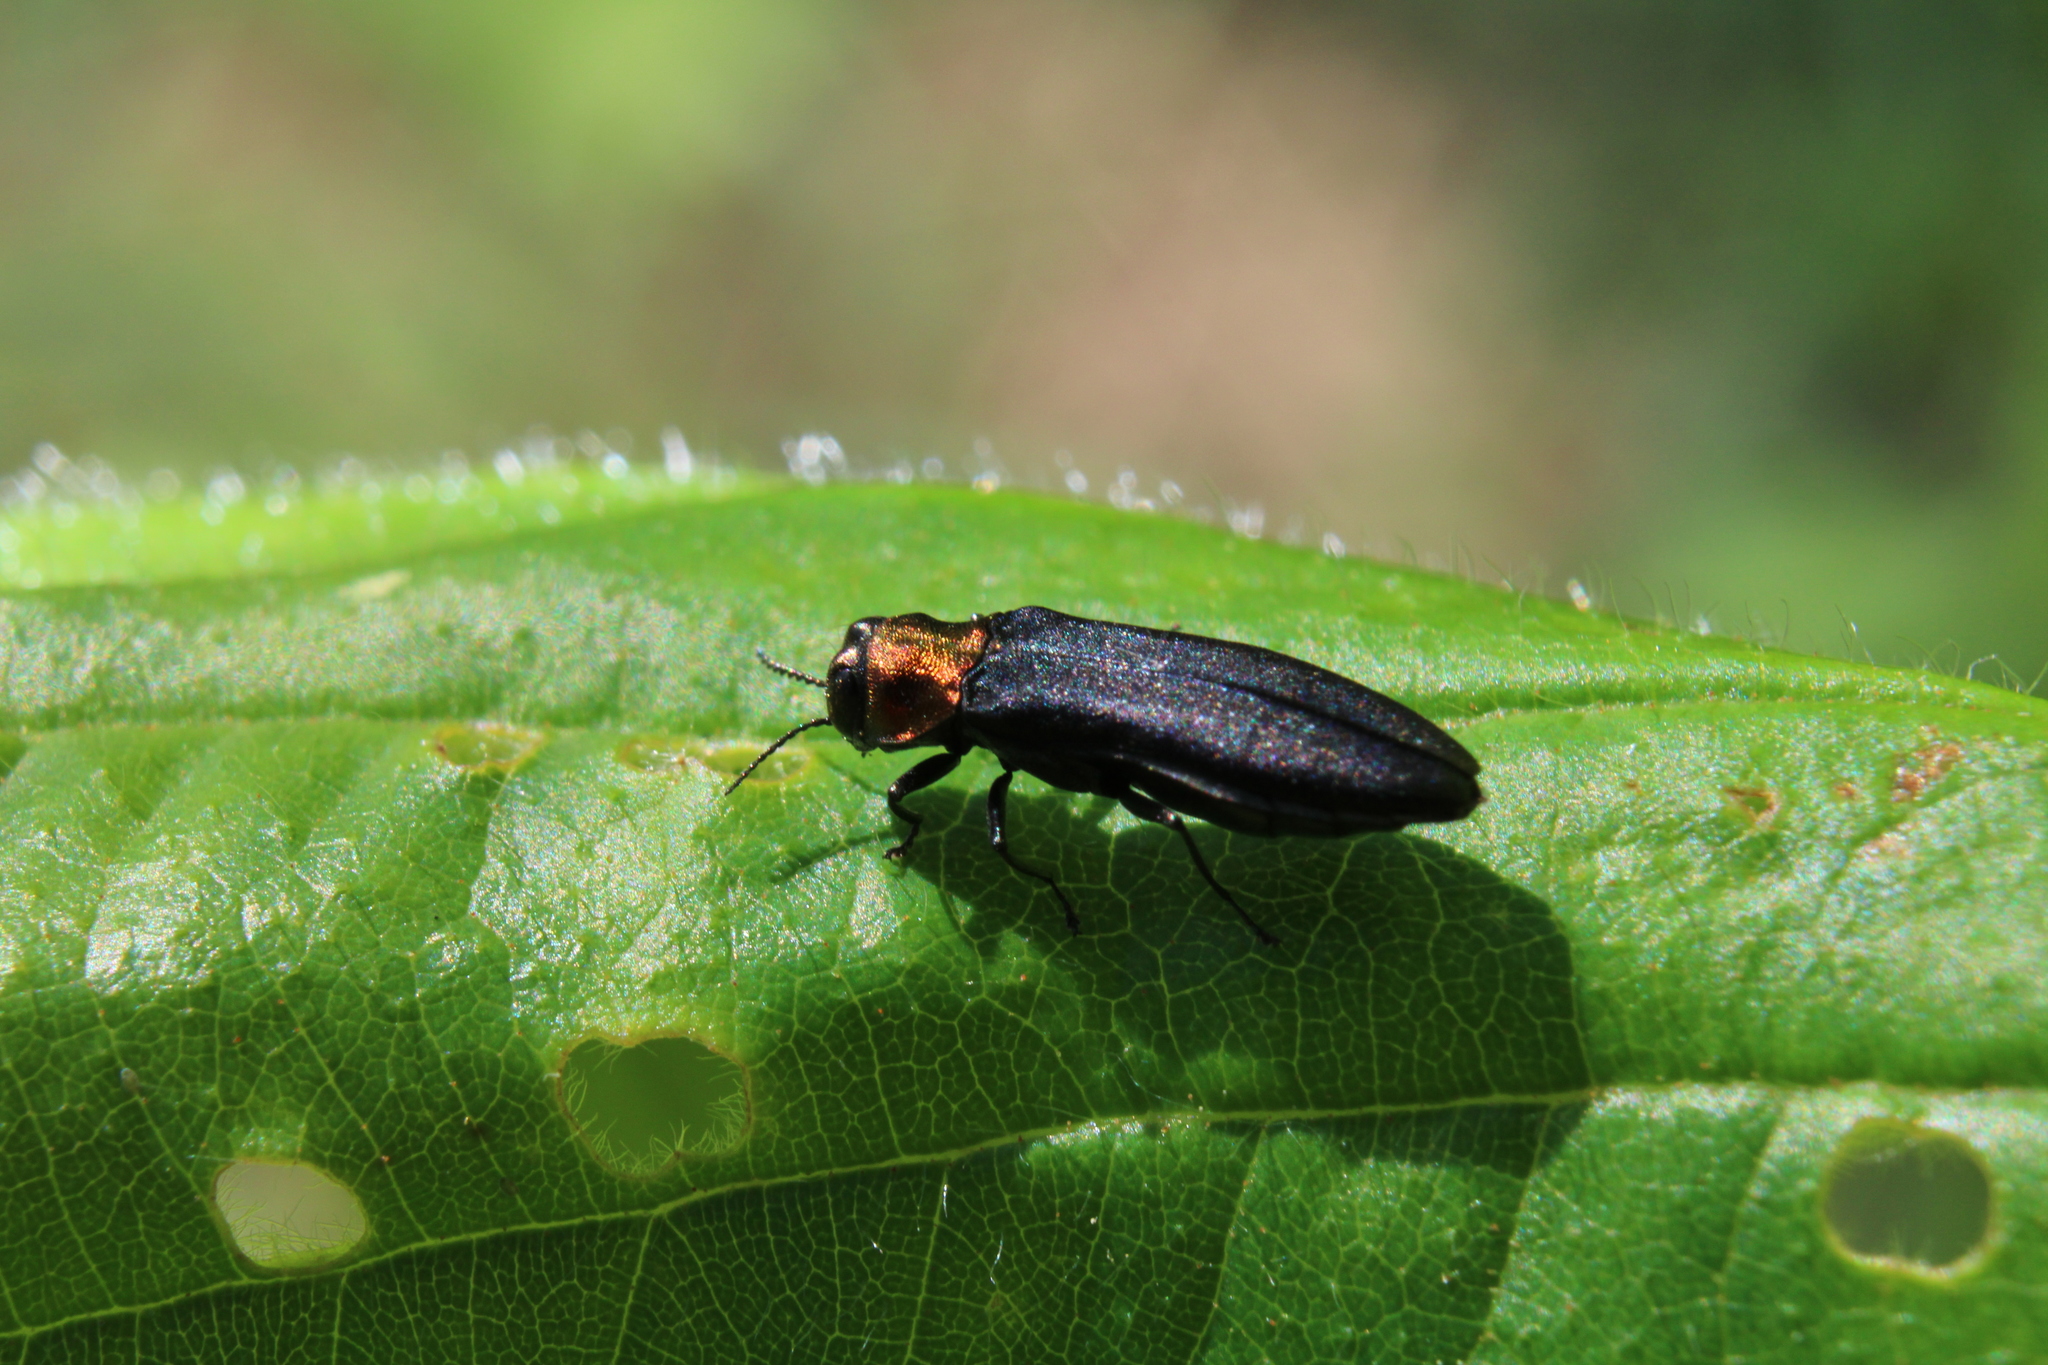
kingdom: Animalia
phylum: Arthropoda
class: Insecta
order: Coleoptera
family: Buprestidae
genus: Agrilus
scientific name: Agrilus ruficollis
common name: Red-necked cane borer beetle
